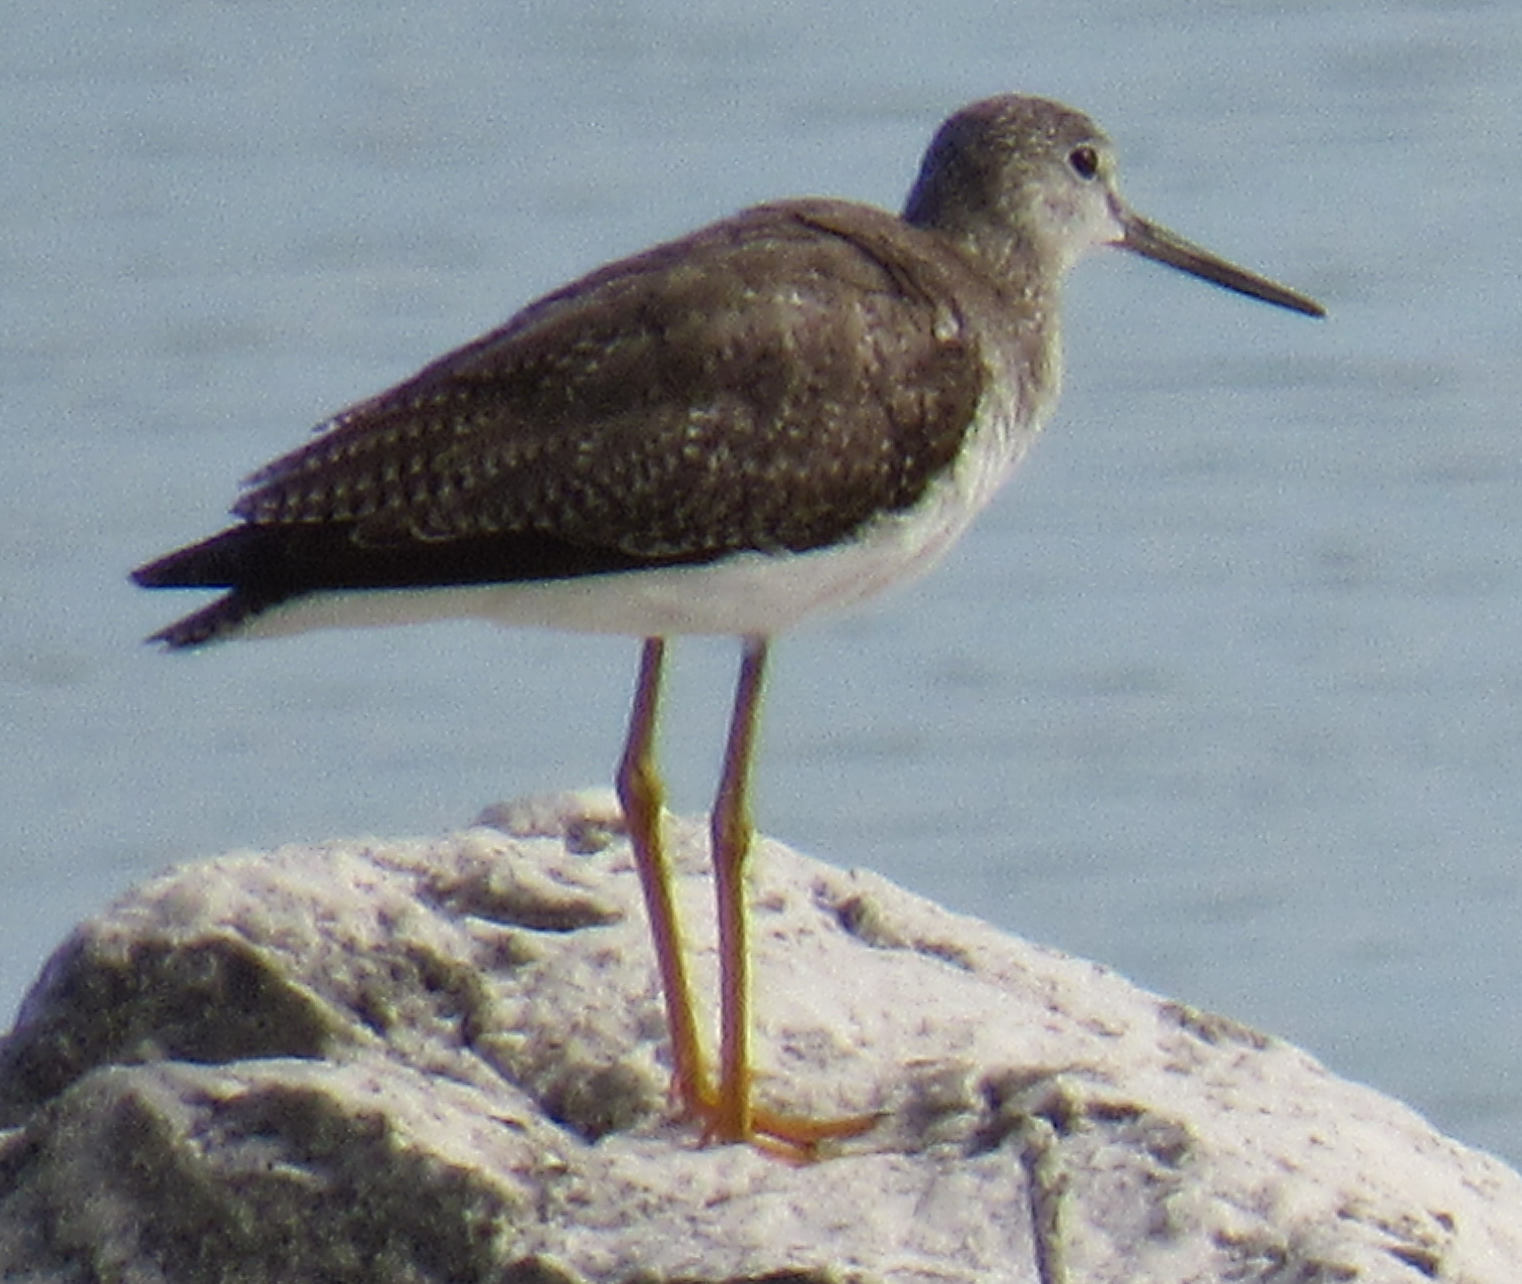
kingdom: Animalia
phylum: Chordata
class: Aves
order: Charadriiformes
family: Scolopacidae
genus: Tringa
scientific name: Tringa melanoleuca
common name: Greater yellowlegs
